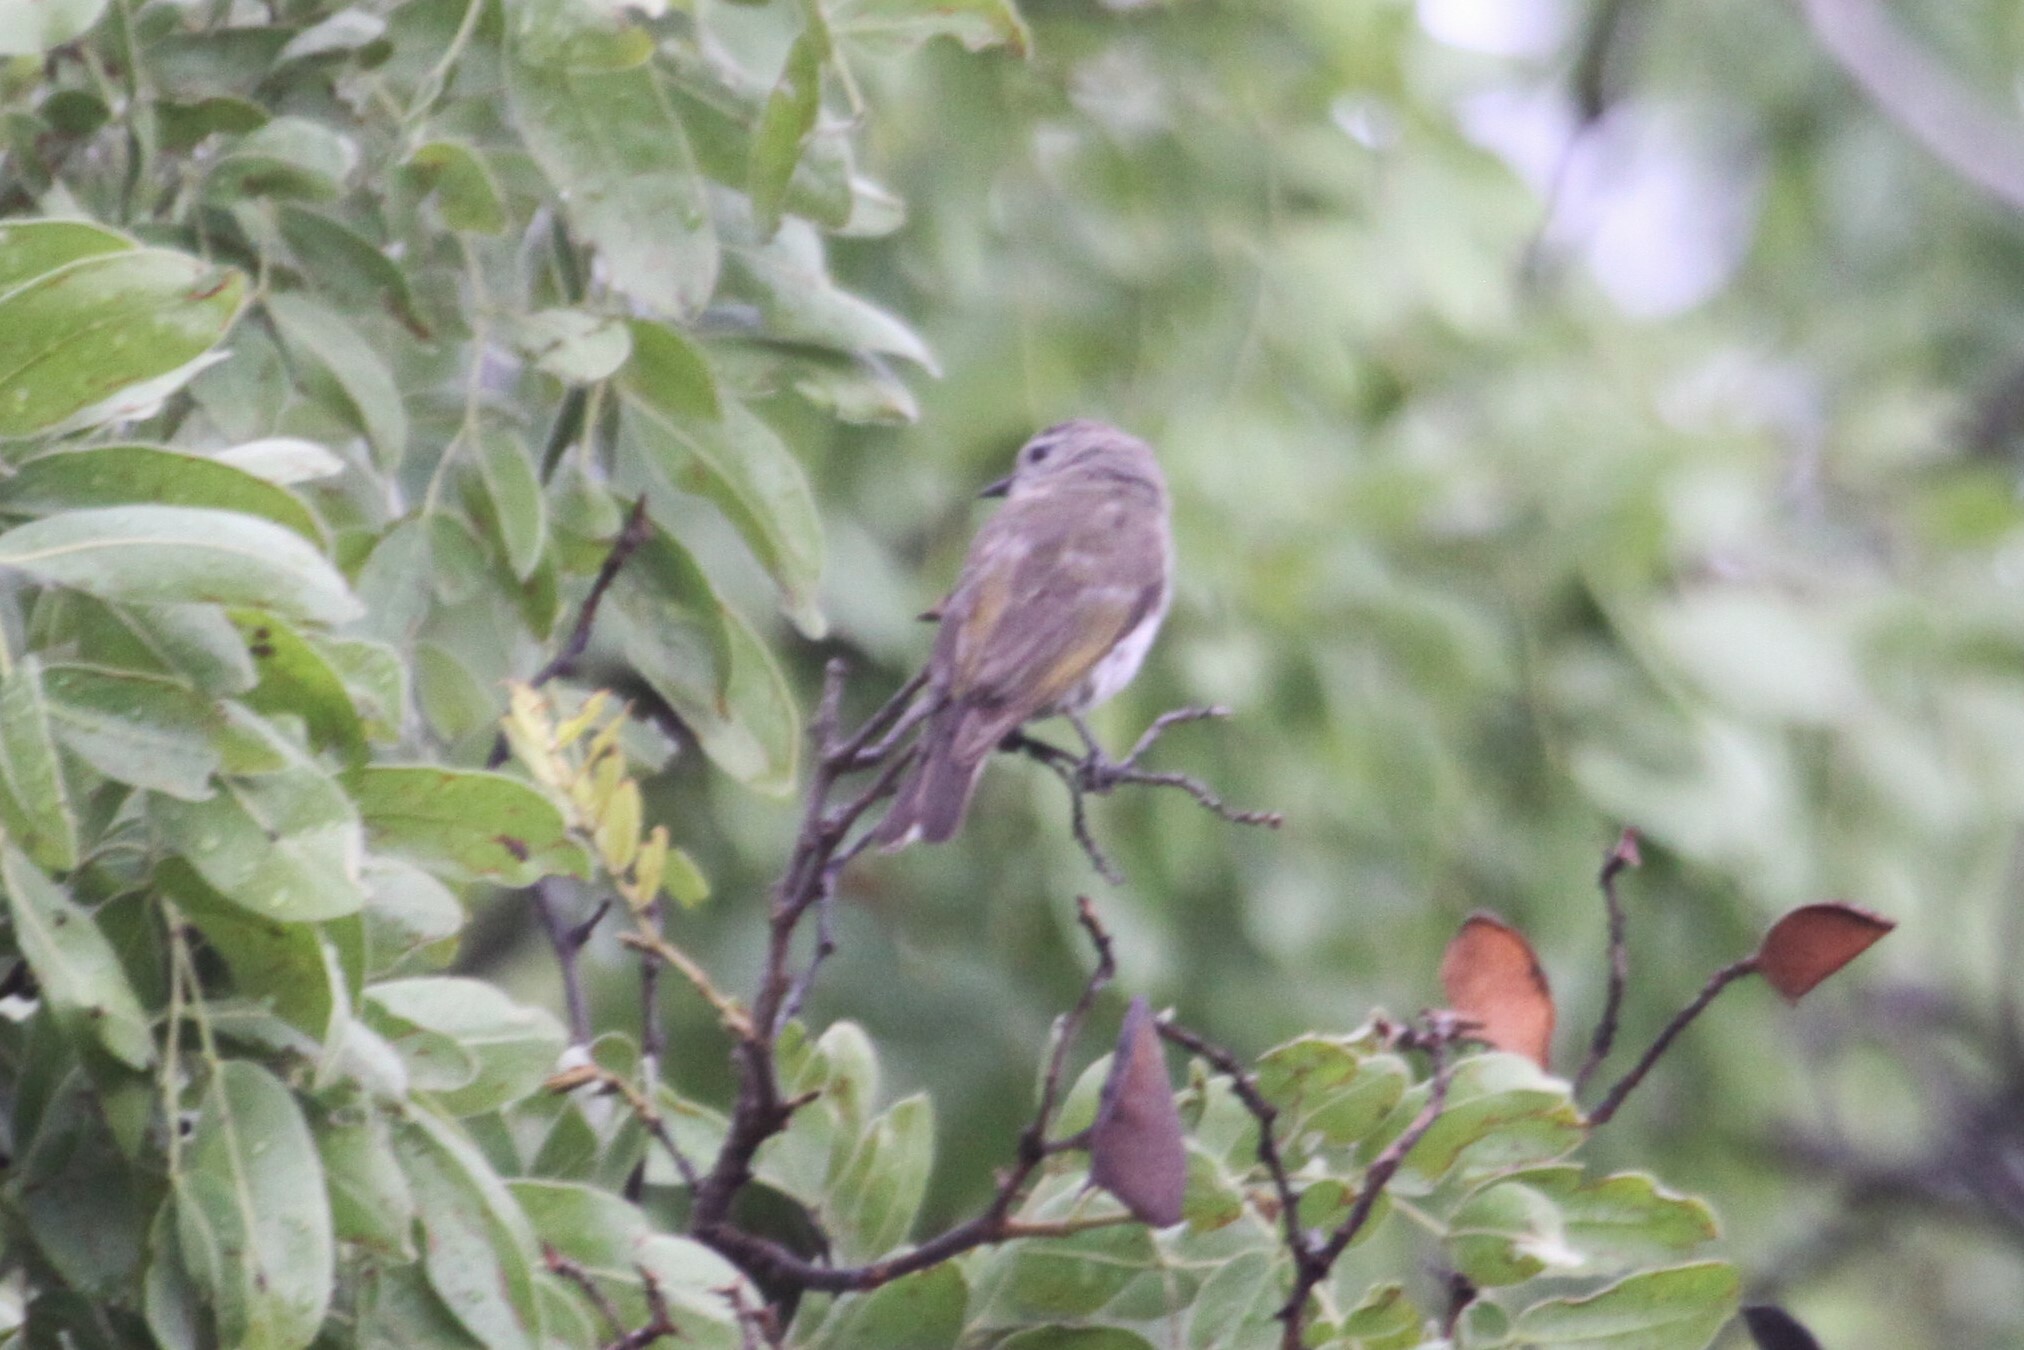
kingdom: Animalia
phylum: Chordata
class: Aves
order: Piciformes
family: Indicatoridae
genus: Prodotiscus
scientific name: Prodotiscus zambesiae
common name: Green-backed honeybird
